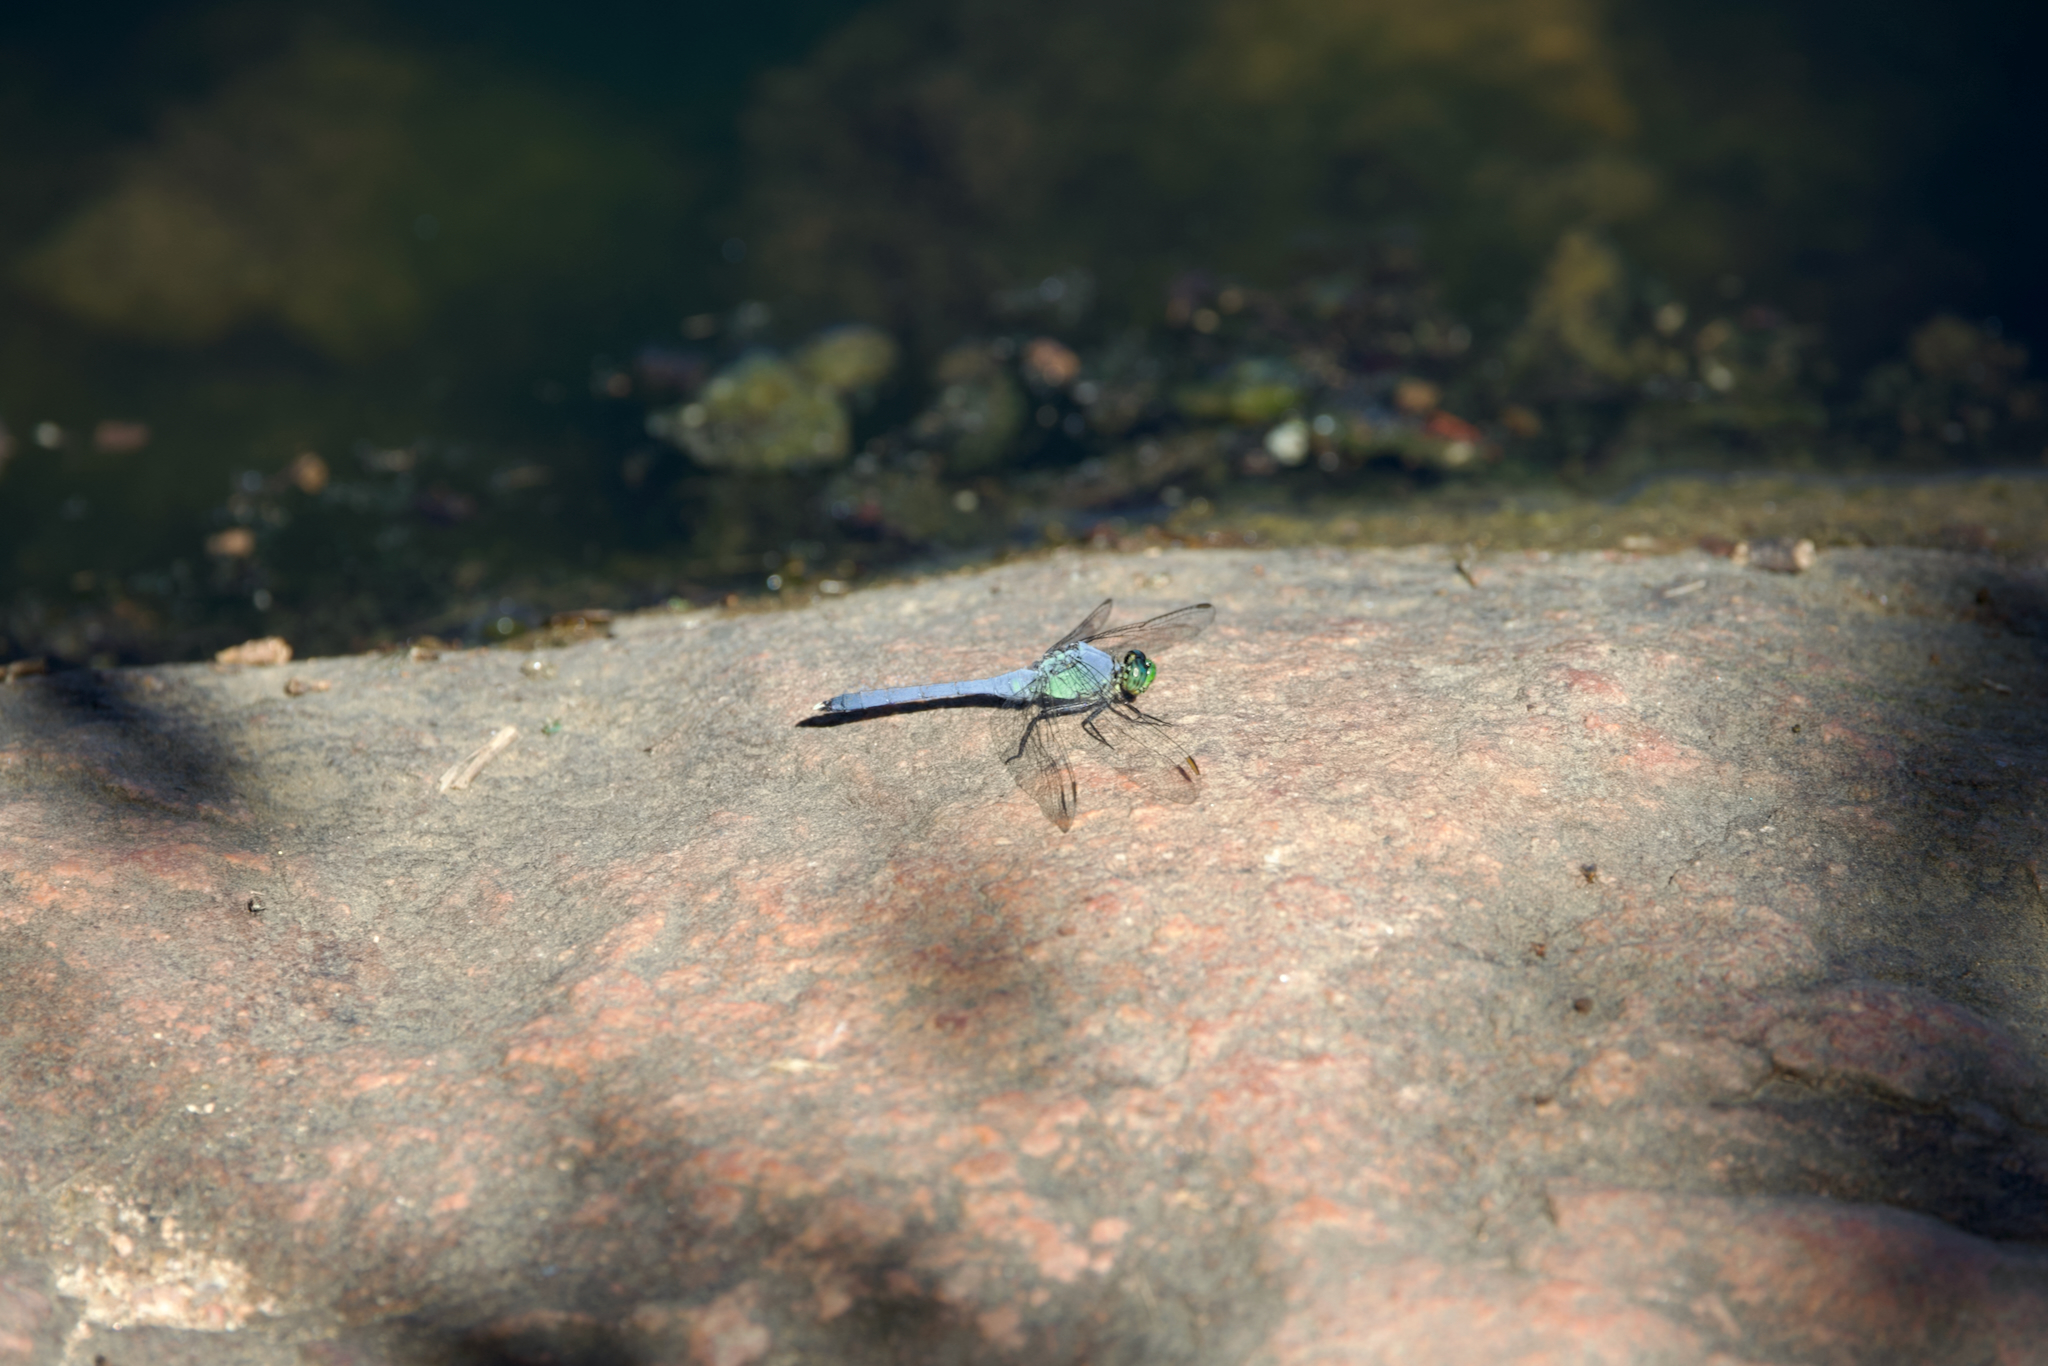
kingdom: Animalia
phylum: Arthropoda
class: Insecta
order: Odonata
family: Libellulidae
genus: Erythemis
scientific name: Erythemis simplicicollis
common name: Eastern pondhawk
